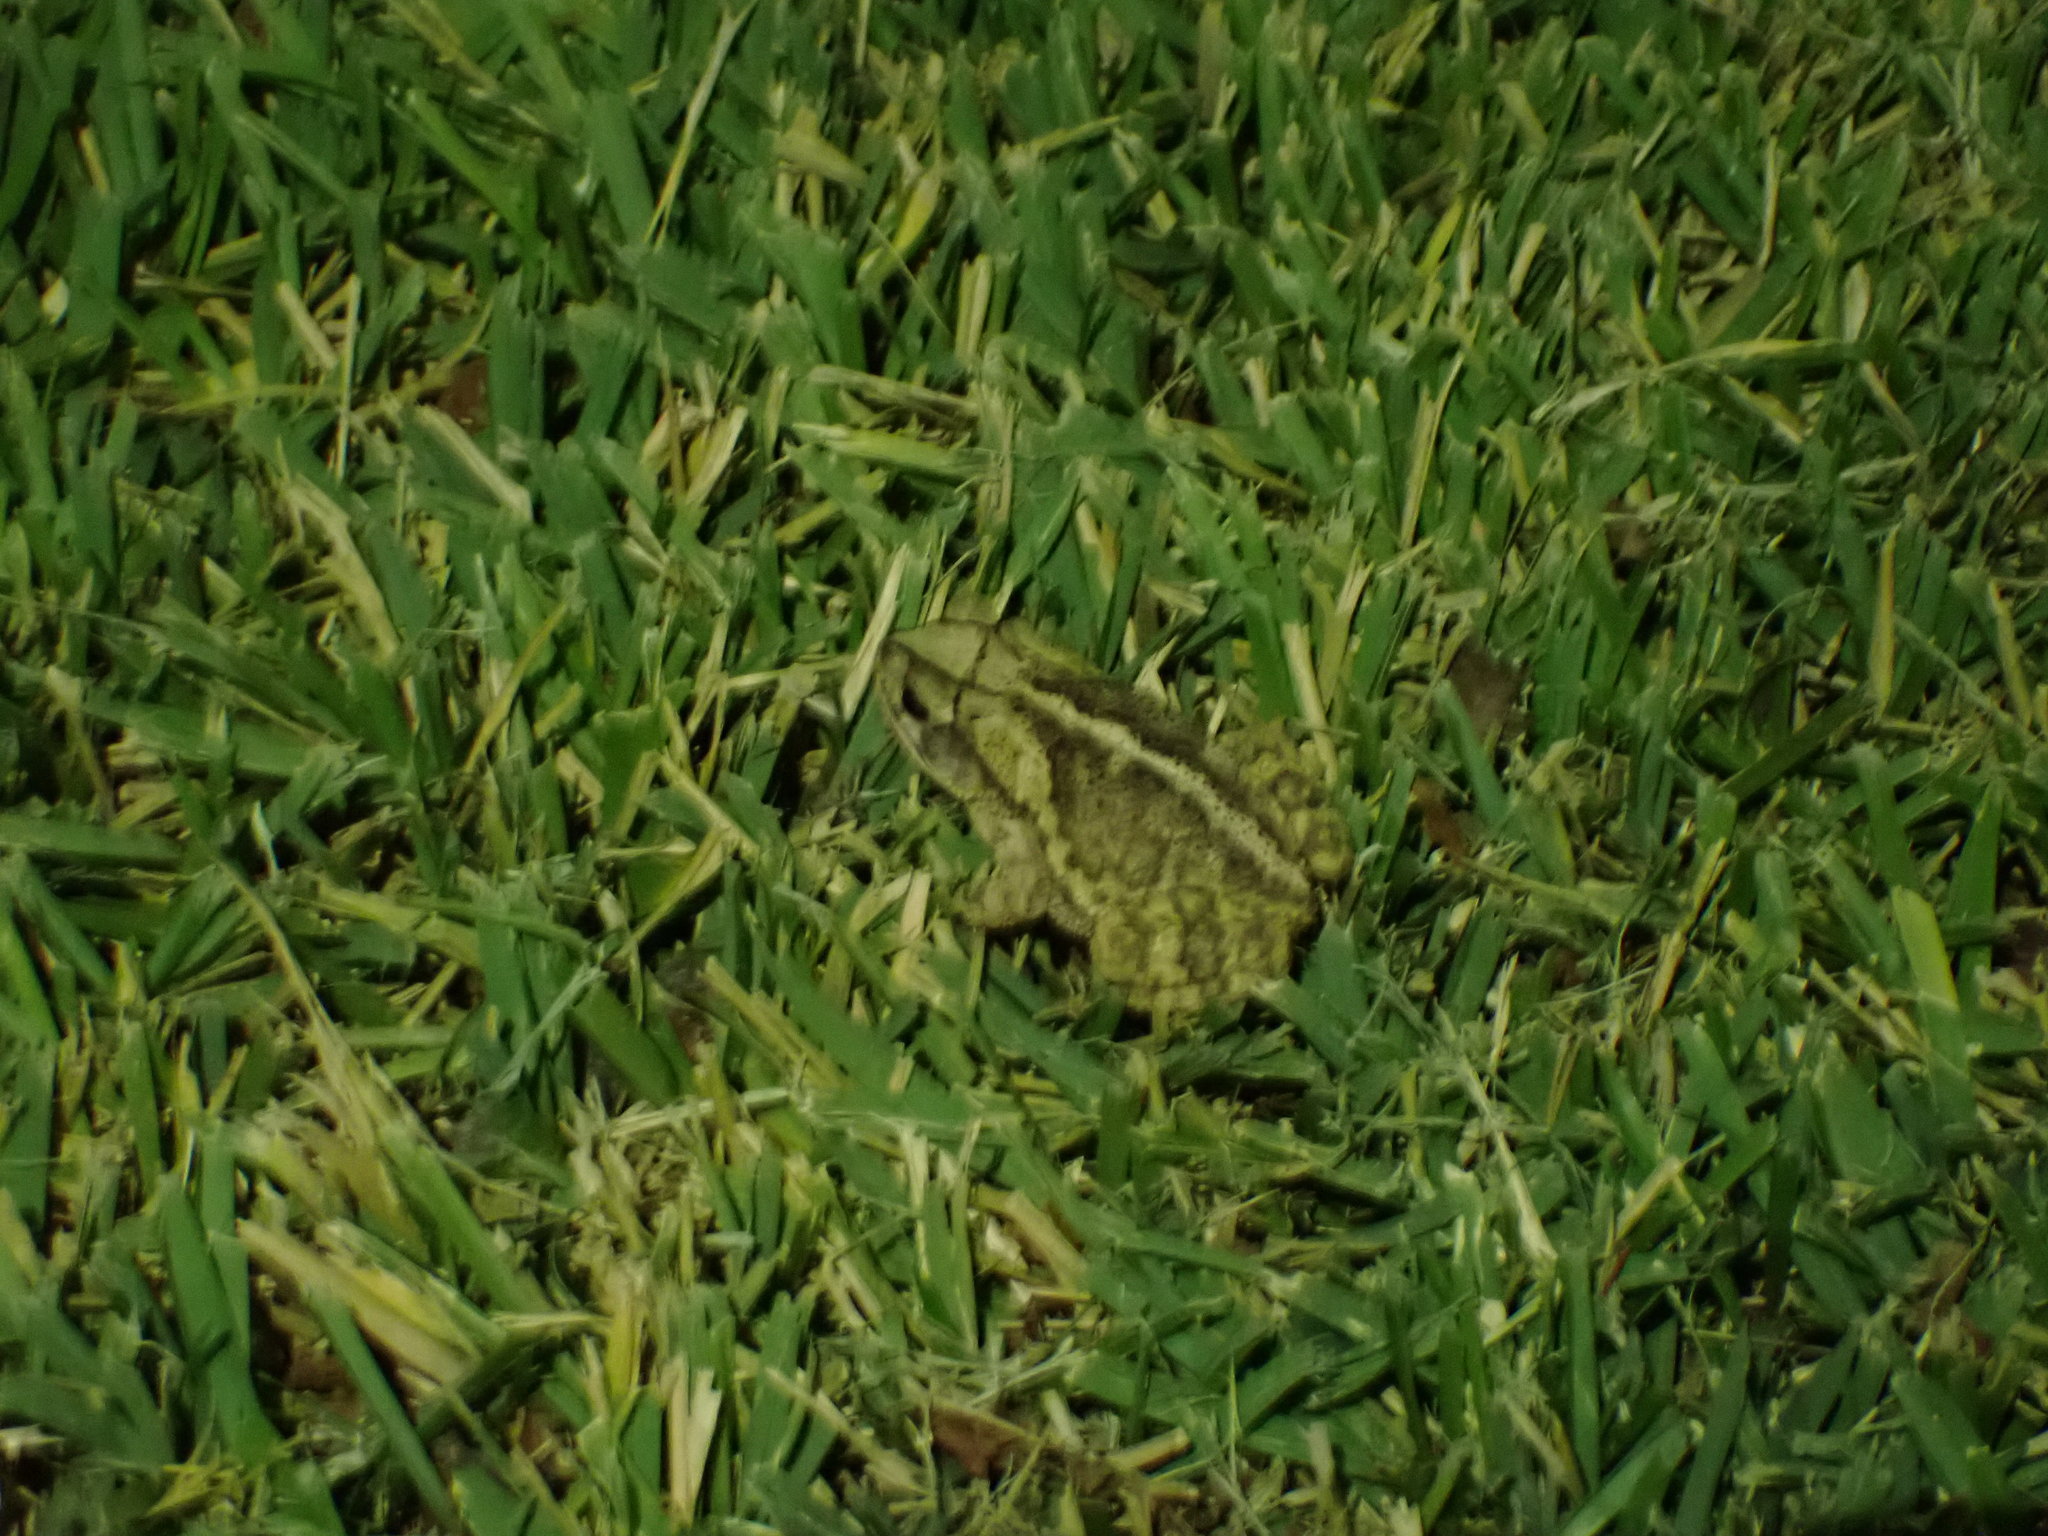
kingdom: Animalia
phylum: Chordata
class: Amphibia
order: Anura
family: Bufonidae
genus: Incilius
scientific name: Incilius nebulifer
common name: Gulf coast toad
